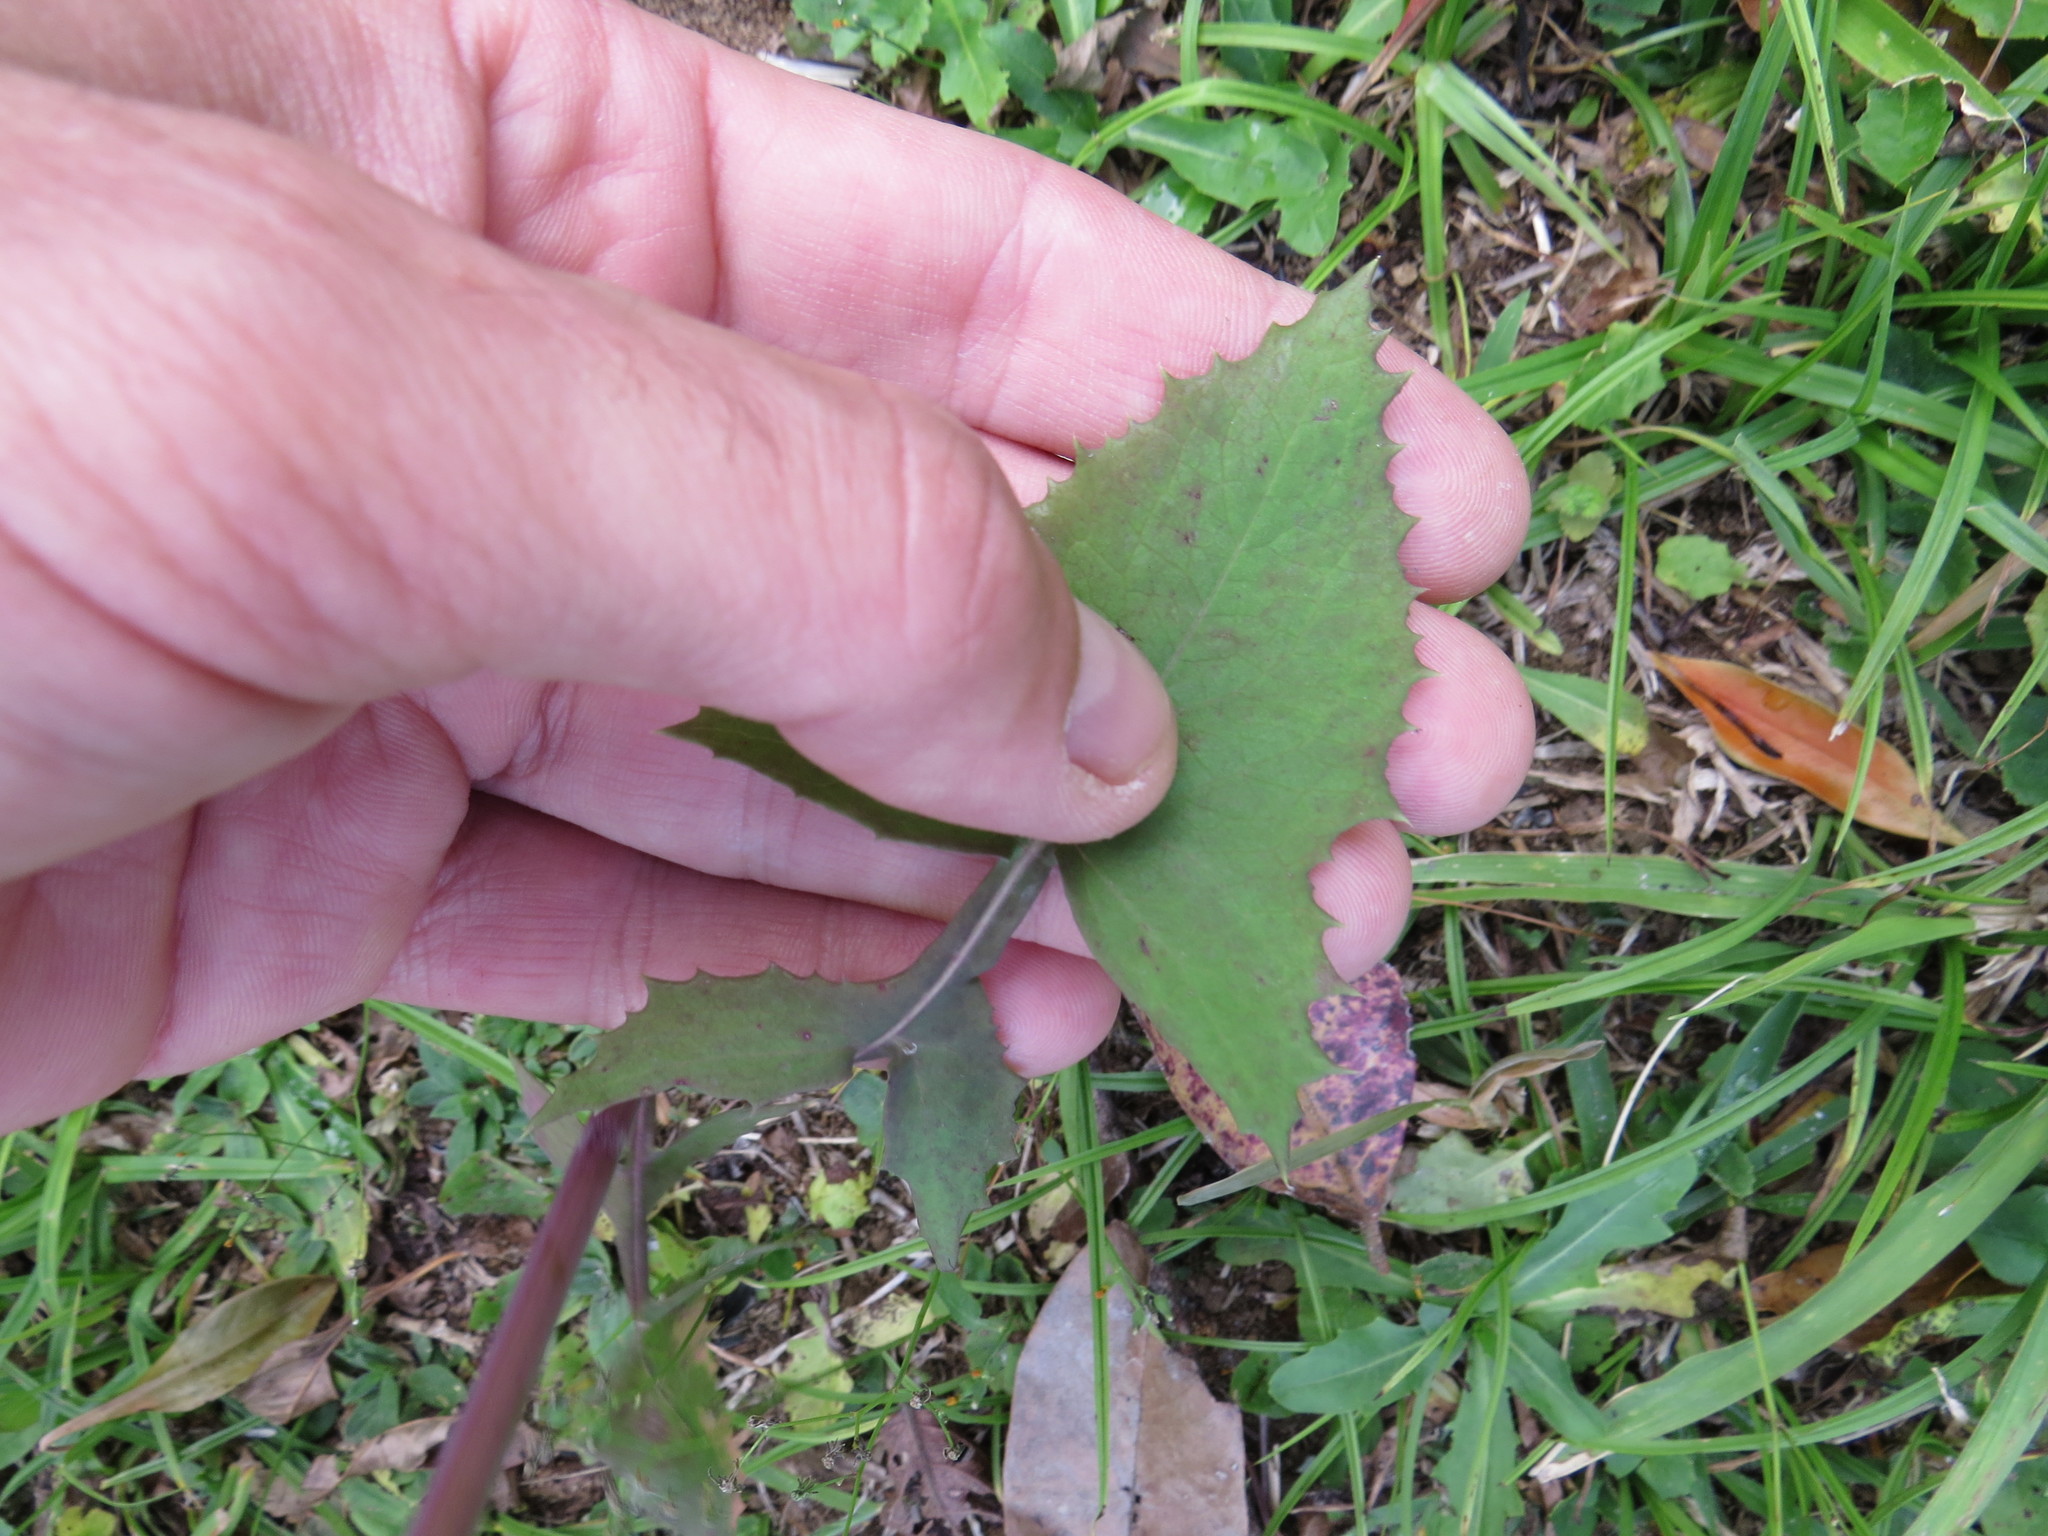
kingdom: Plantae
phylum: Tracheophyta
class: Magnoliopsida
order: Asterales
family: Asteraceae
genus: Sonchus
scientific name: Sonchus oleraceus
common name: Common sowthistle
